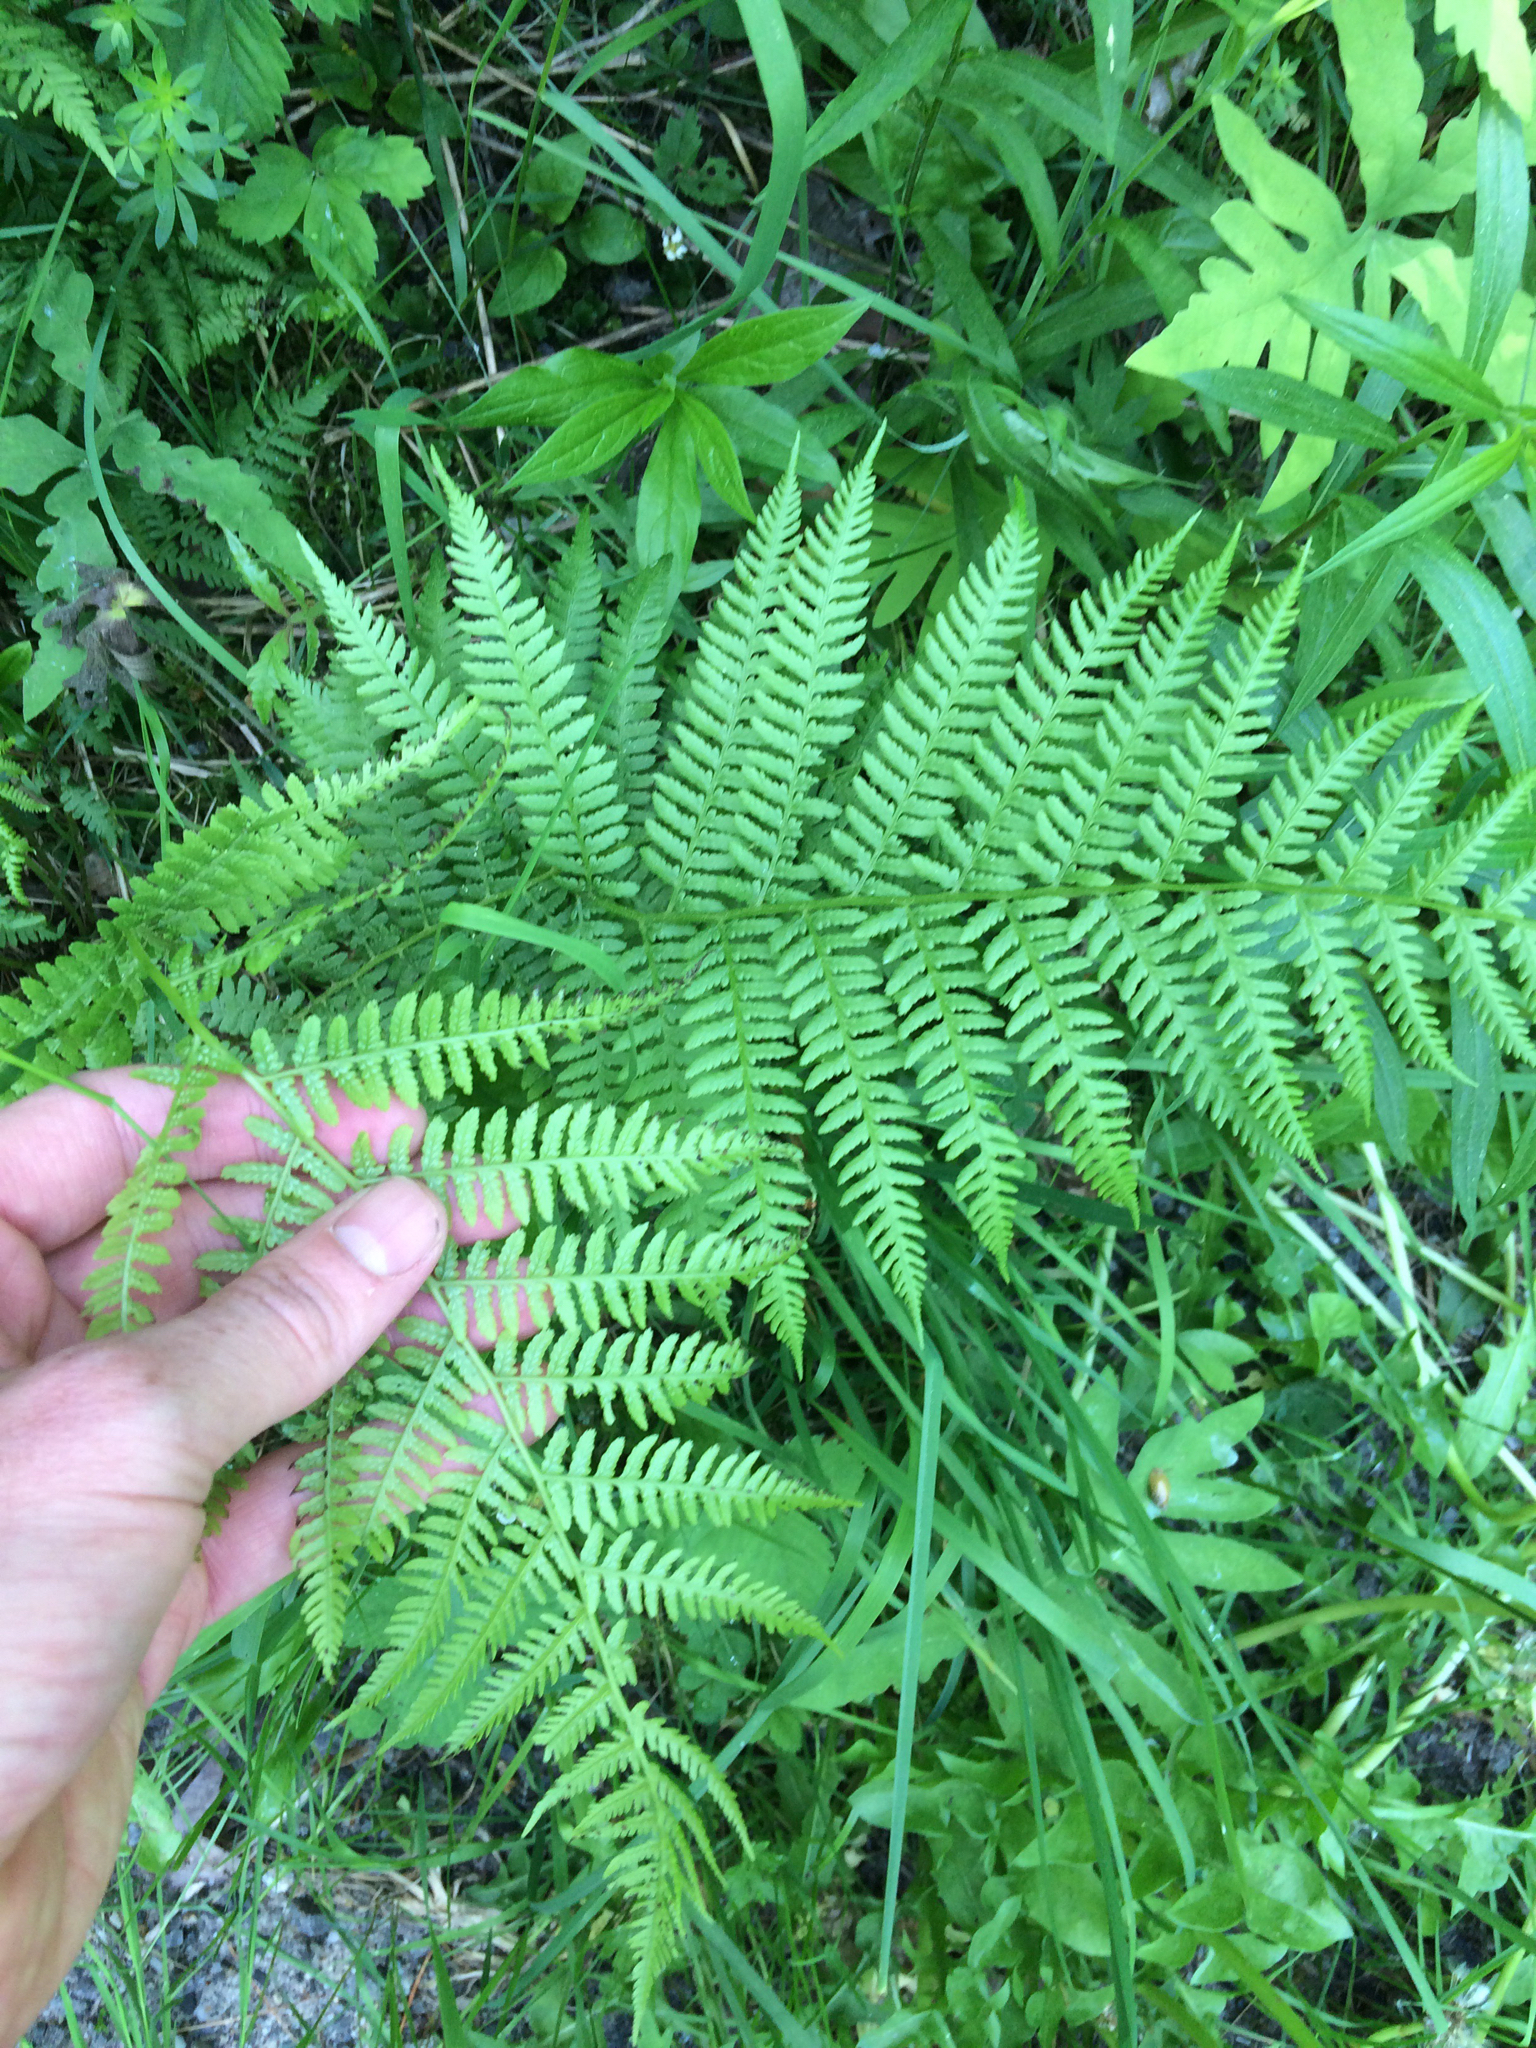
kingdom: Plantae
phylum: Tracheophyta
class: Polypodiopsida
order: Polypodiales
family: Athyriaceae
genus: Athyrium
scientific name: Athyrium angustum
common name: Northern lady fern
